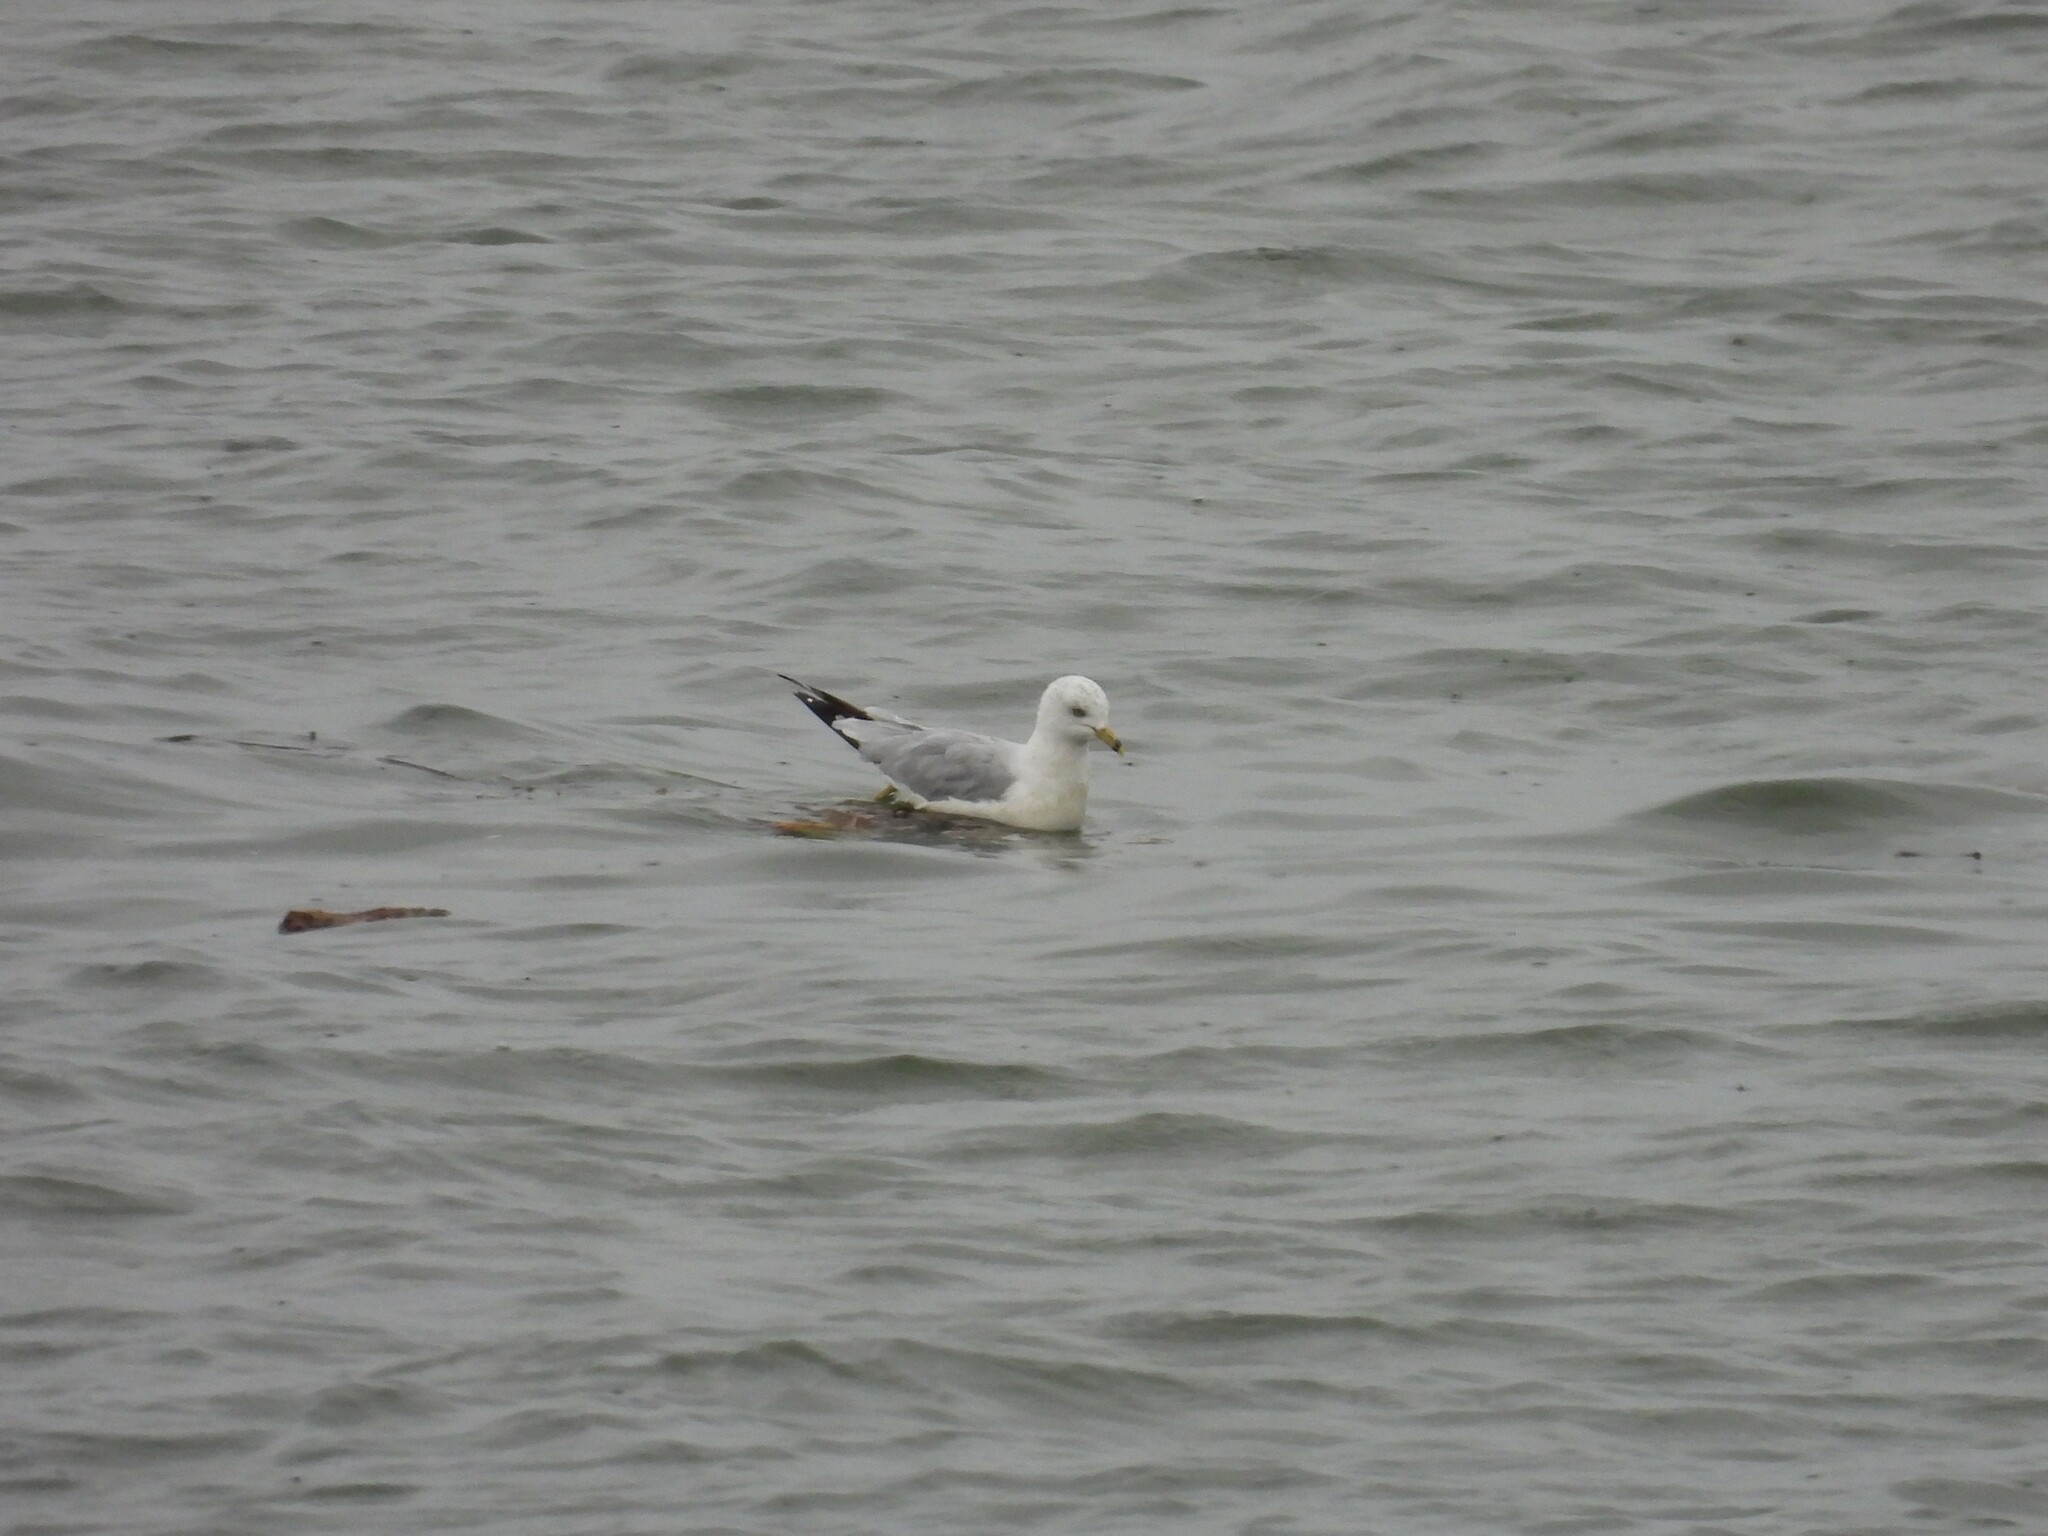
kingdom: Animalia
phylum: Chordata
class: Aves
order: Charadriiformes
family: Laridae
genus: Larus
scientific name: Larus delawarensis
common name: Ring-billed gull
